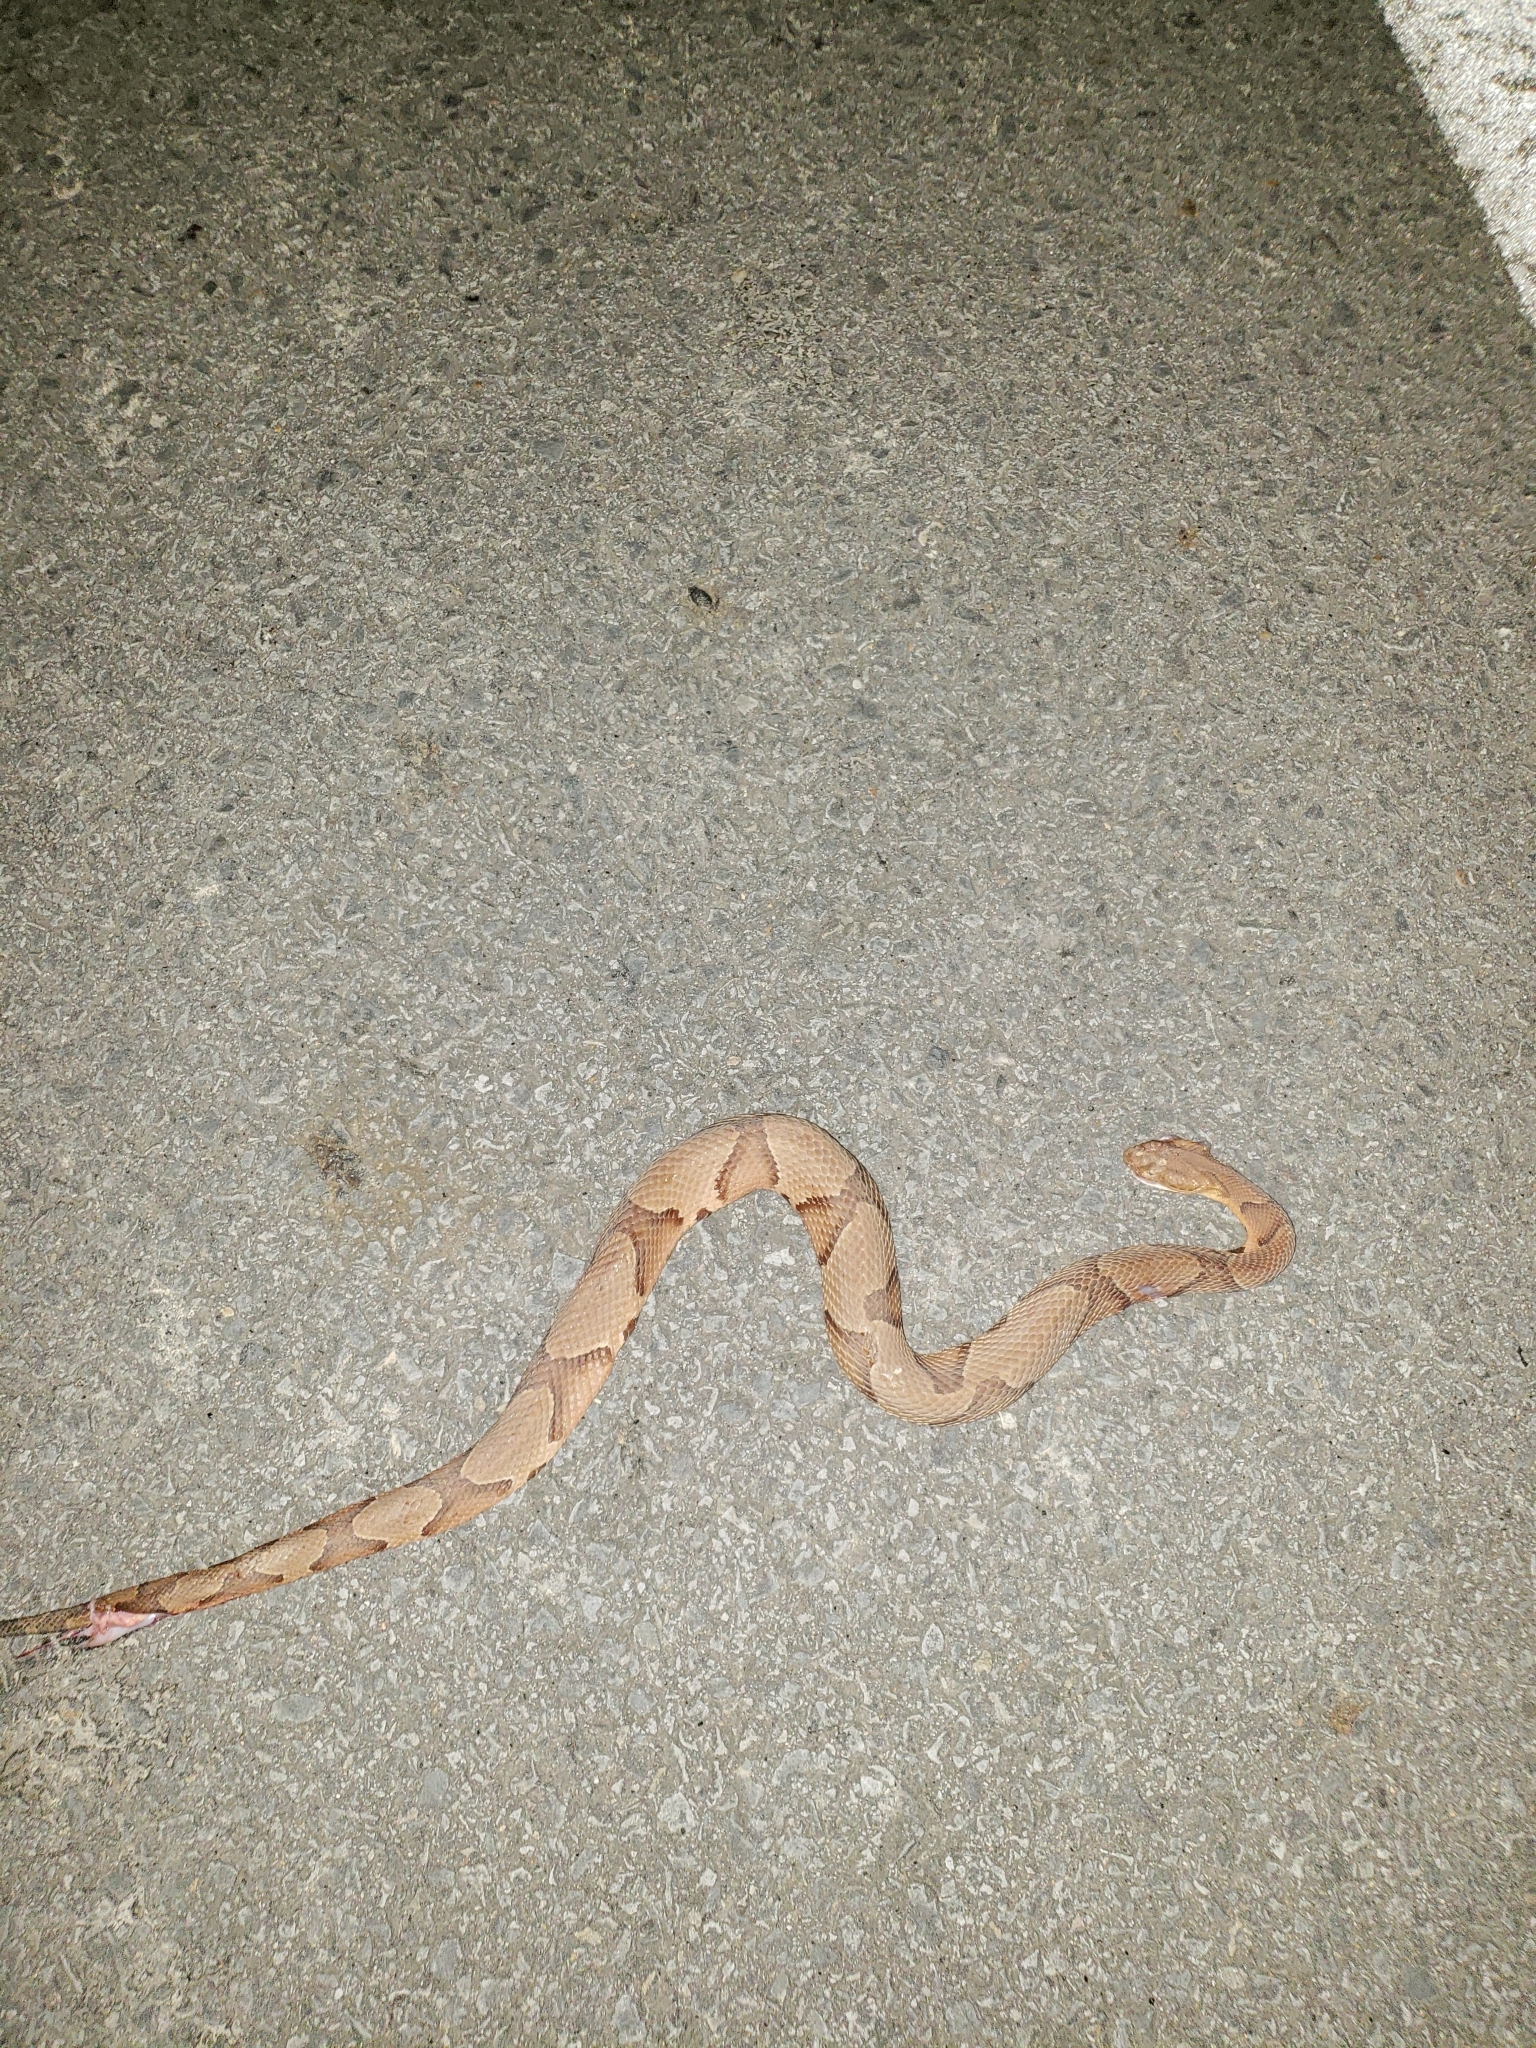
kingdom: Animalia
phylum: Chordata
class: Squamata
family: Viperidae
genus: Agkistrodon
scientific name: Agkistrodon contortrix
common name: Northern copperhead
